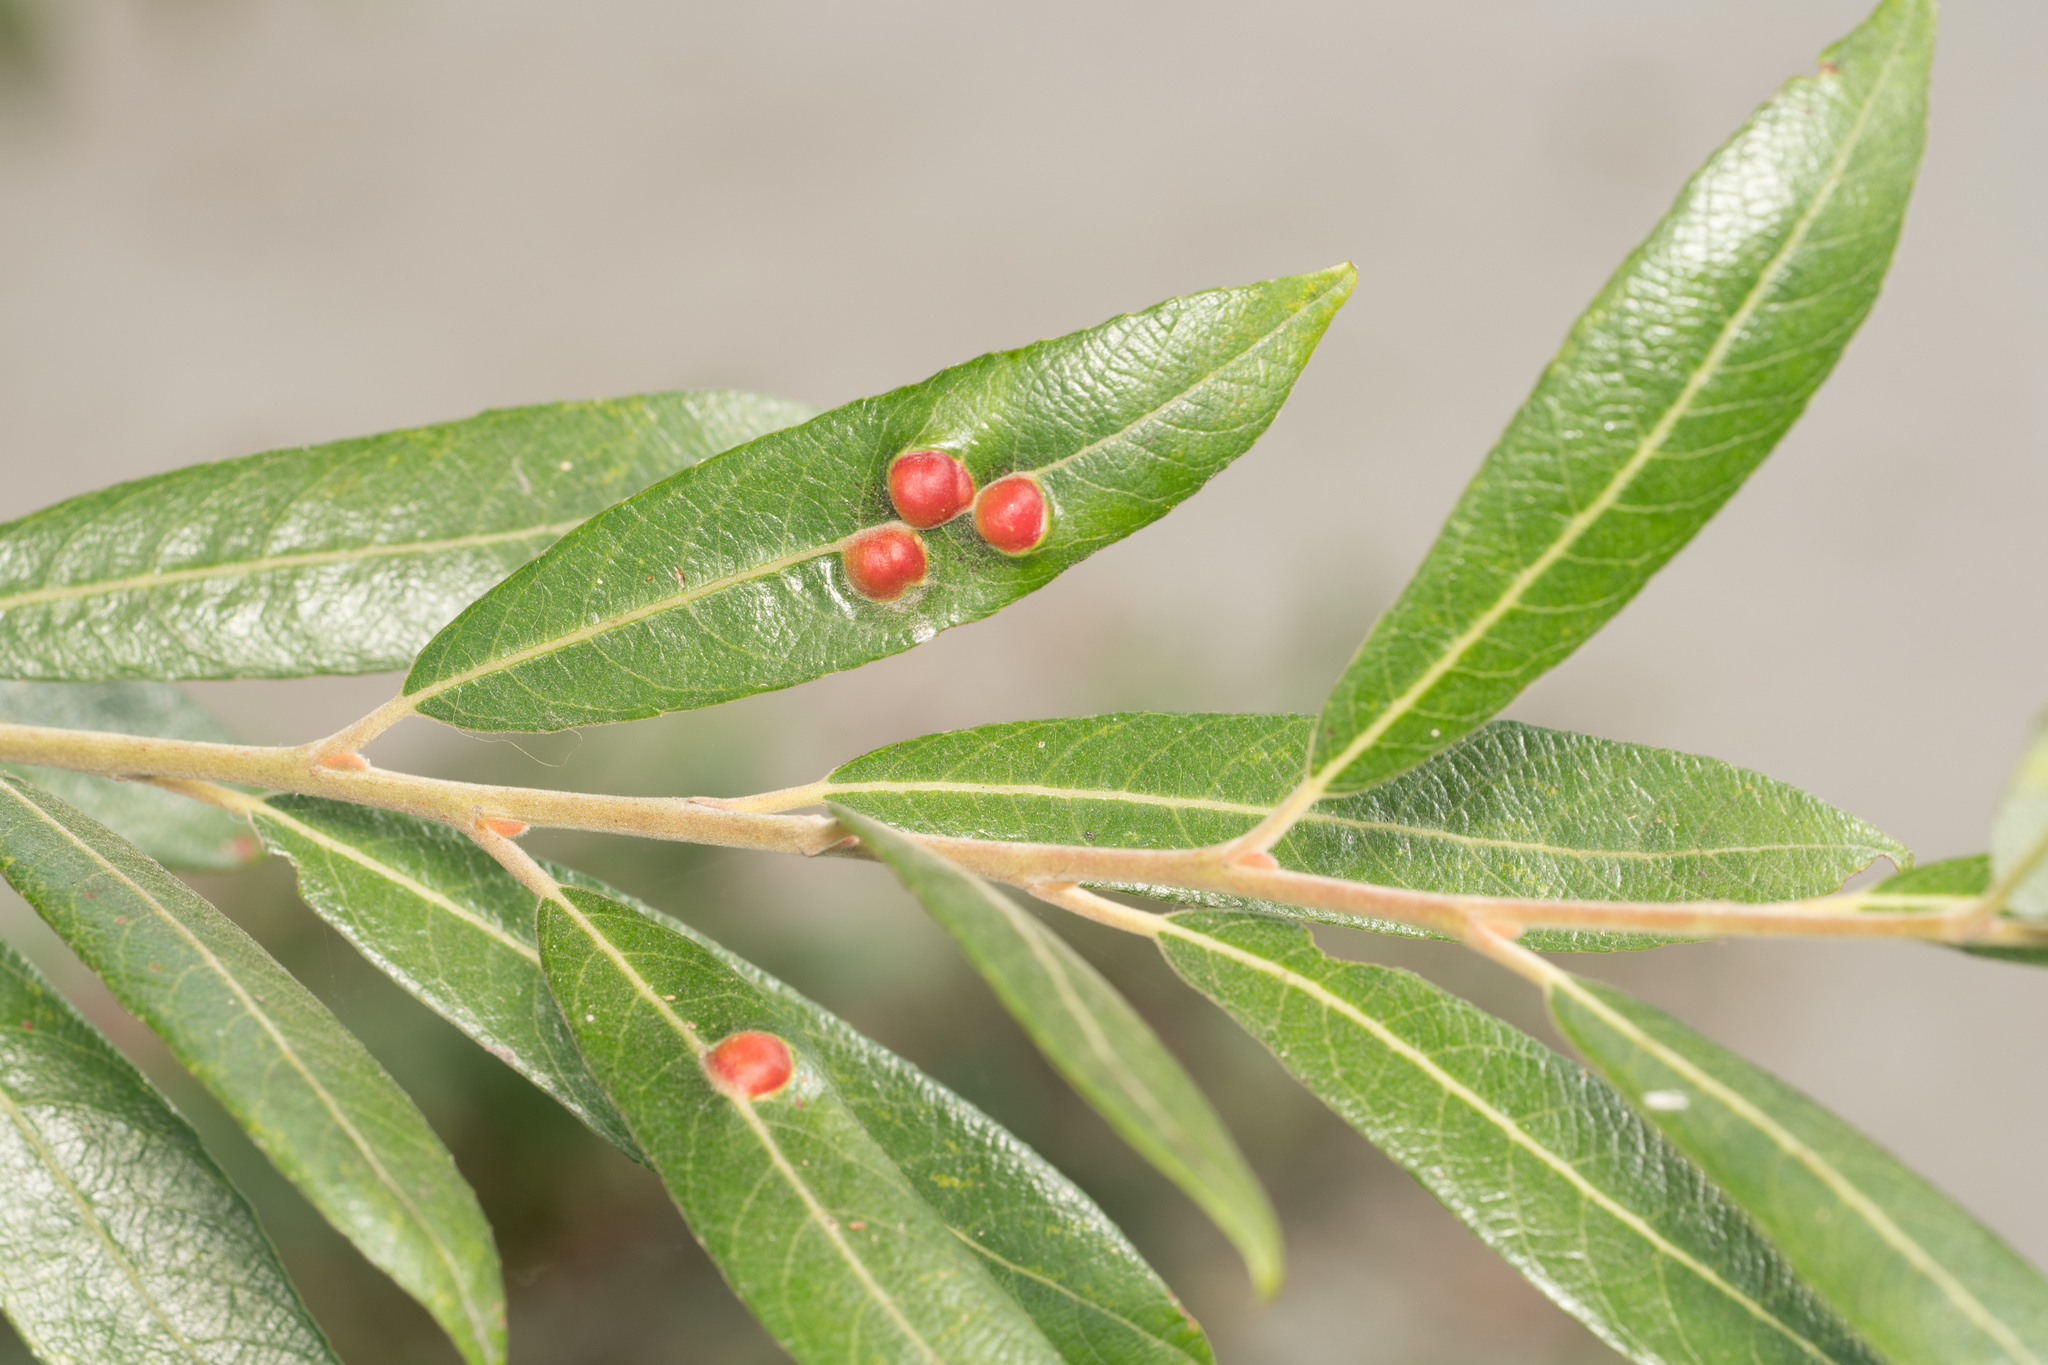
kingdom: Plantae
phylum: Tracheophyta
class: Magnoliopsida
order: Malpighiales
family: Salicaceae
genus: Salix
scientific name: Salix lasiolepis
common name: Arroyo willow
